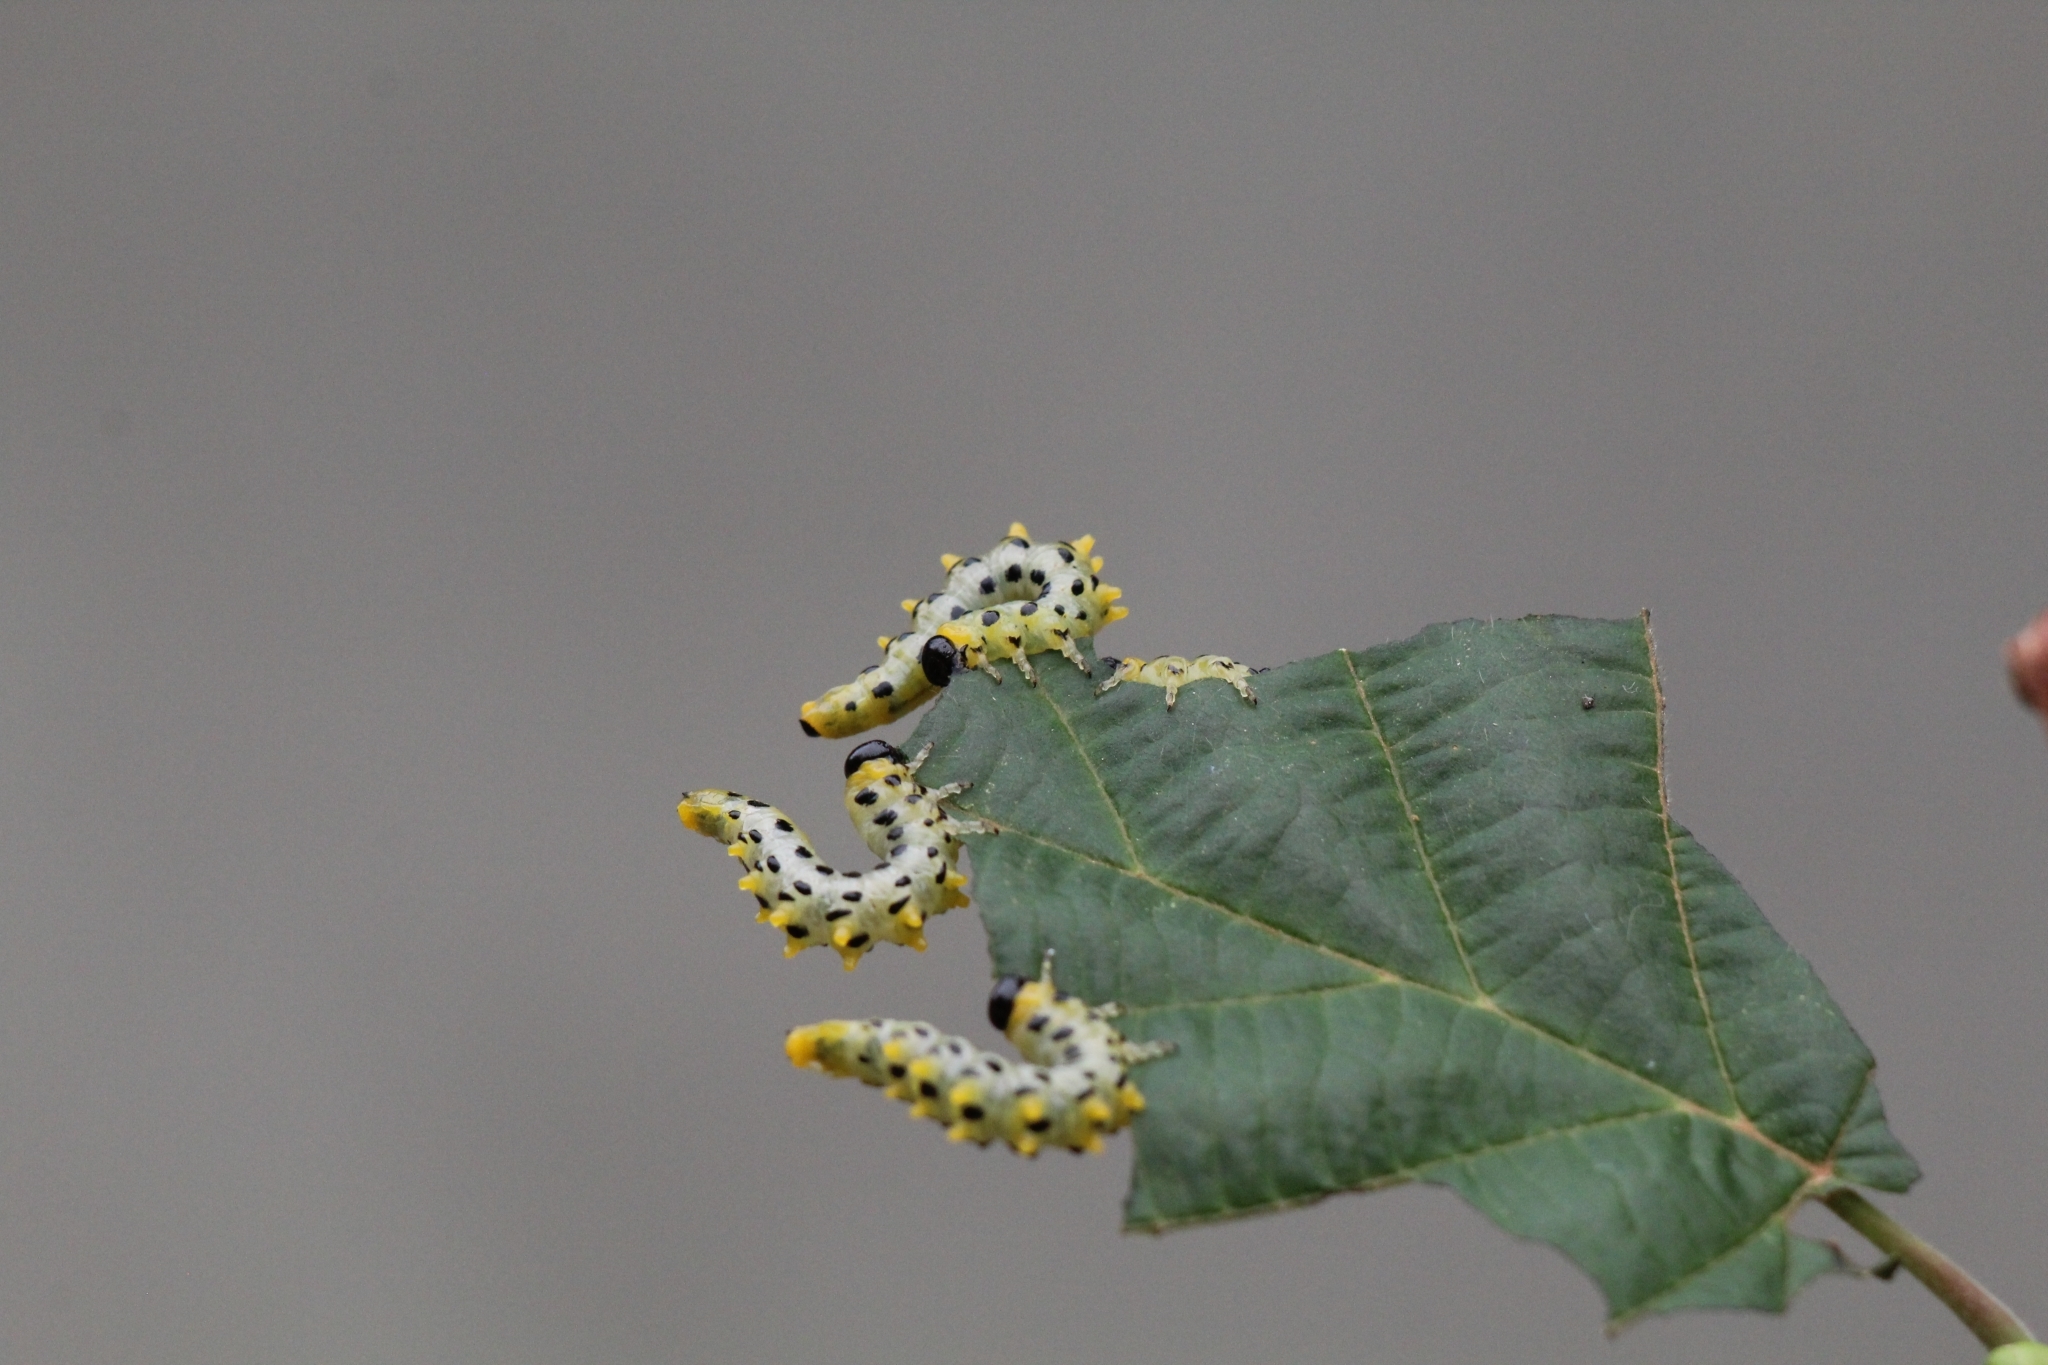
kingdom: Animalia
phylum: Arthropoda
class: Insecta
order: Hymenoptera
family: Tenthredinidae
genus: Craesus
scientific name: Craesus septentrionalis
